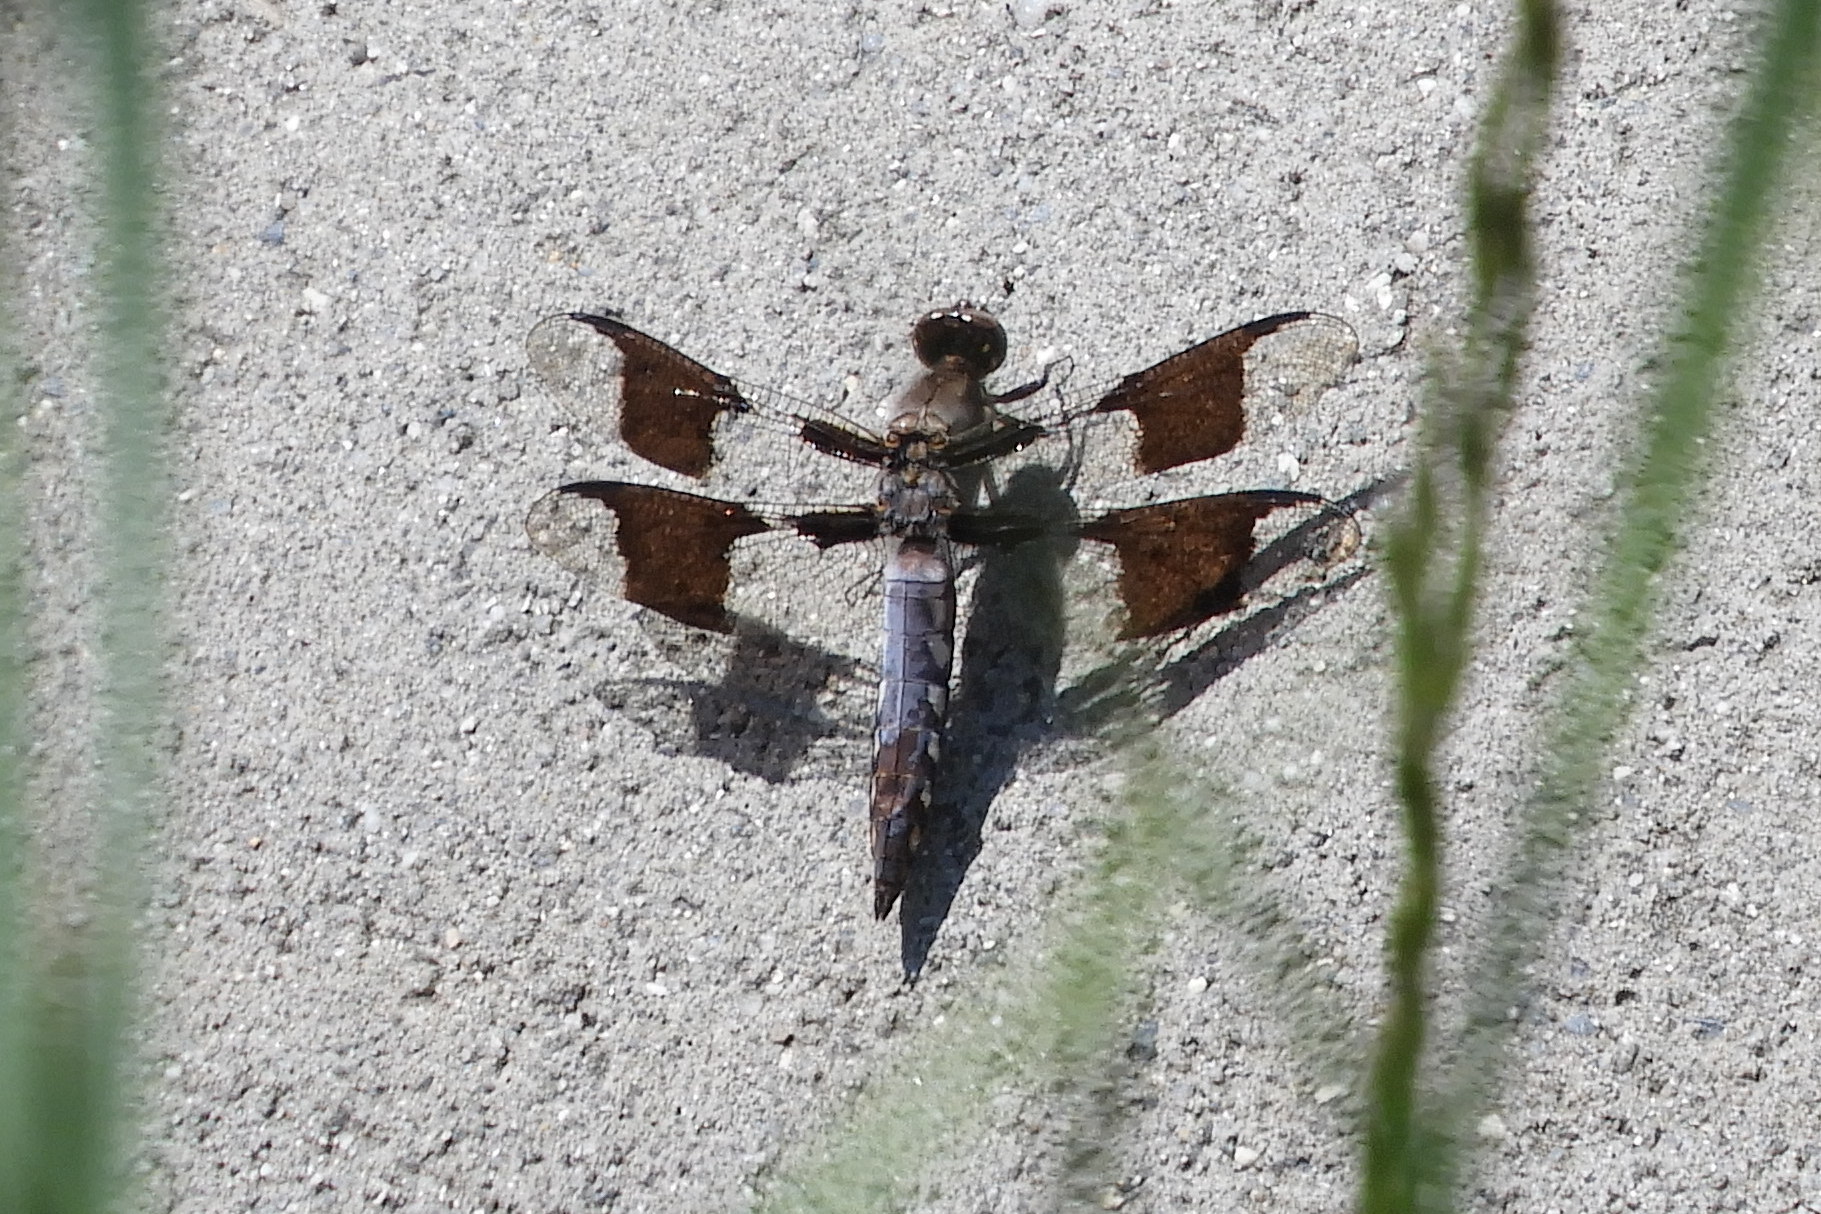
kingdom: Animalia
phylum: Arthropoda
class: Insecta
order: Odonata
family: Libellulidae
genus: Plathemis
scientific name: Plathemis lydia
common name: Common whitetail
